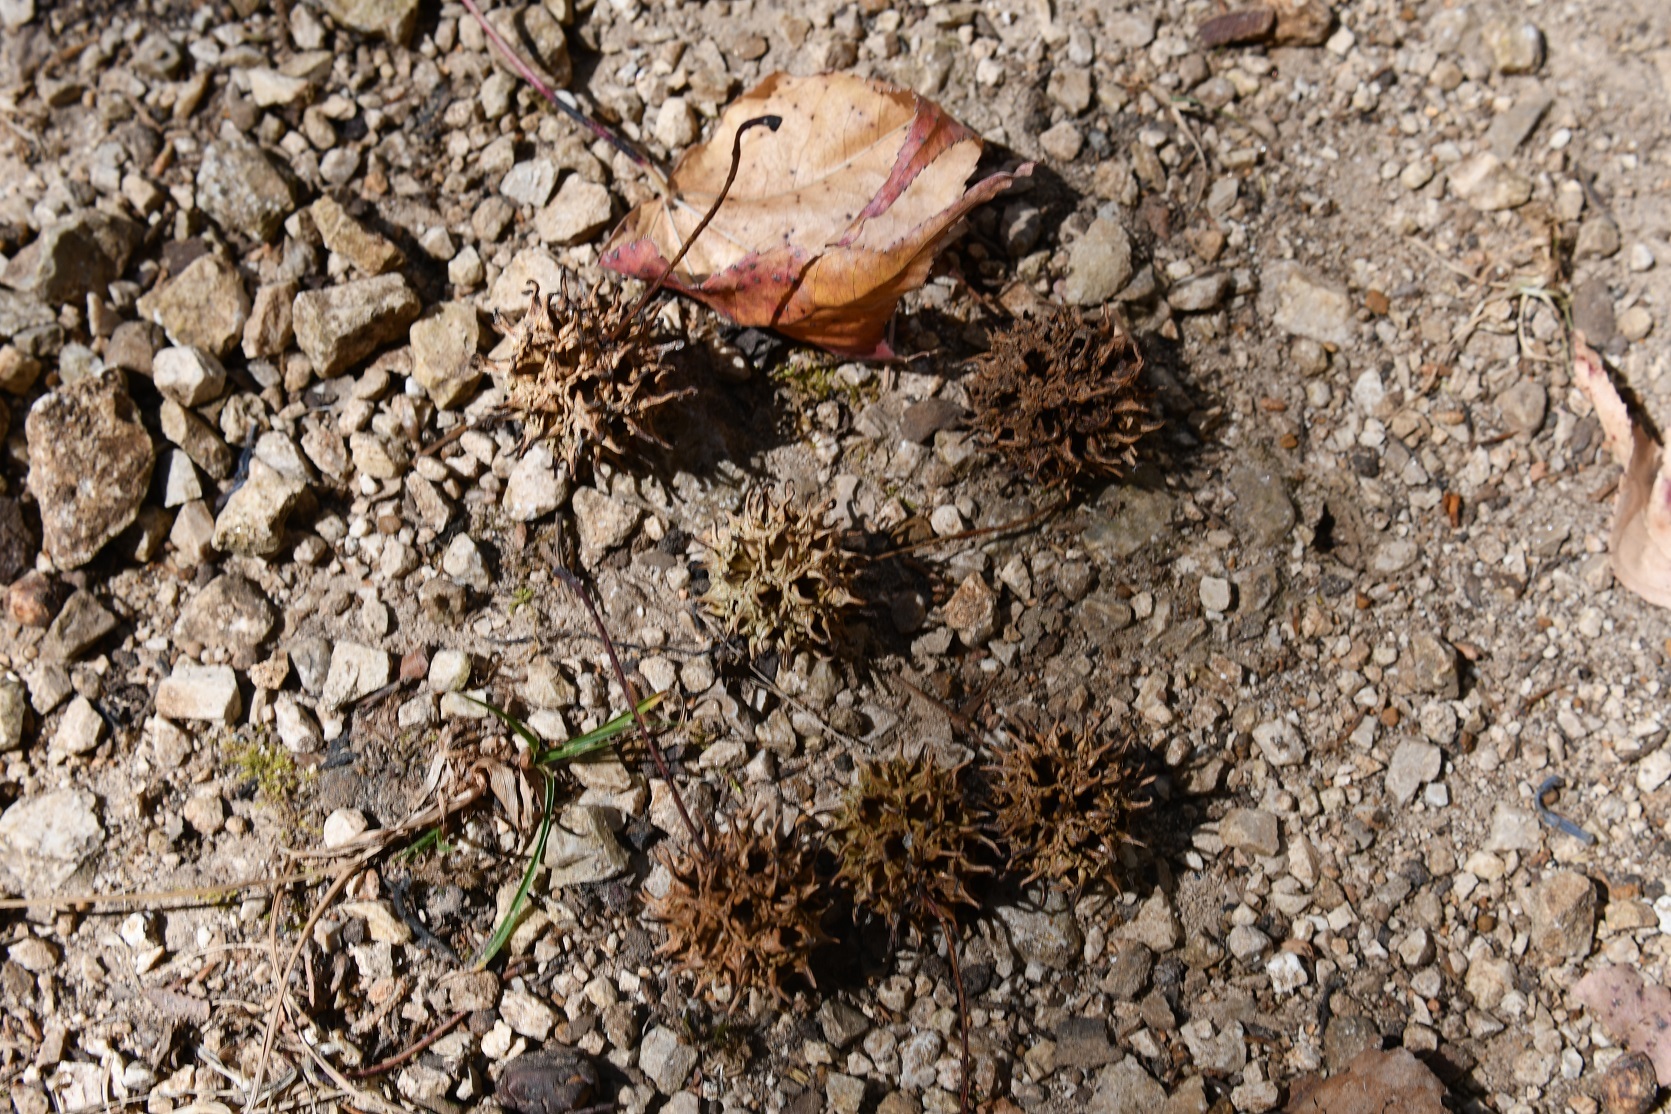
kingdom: Plantae
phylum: Tracheophyta
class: Magnoliopsida
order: Saxifragales
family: Altingiaceae
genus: Liquidambar
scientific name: Liquidambar styraciflua
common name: Sweet gum
